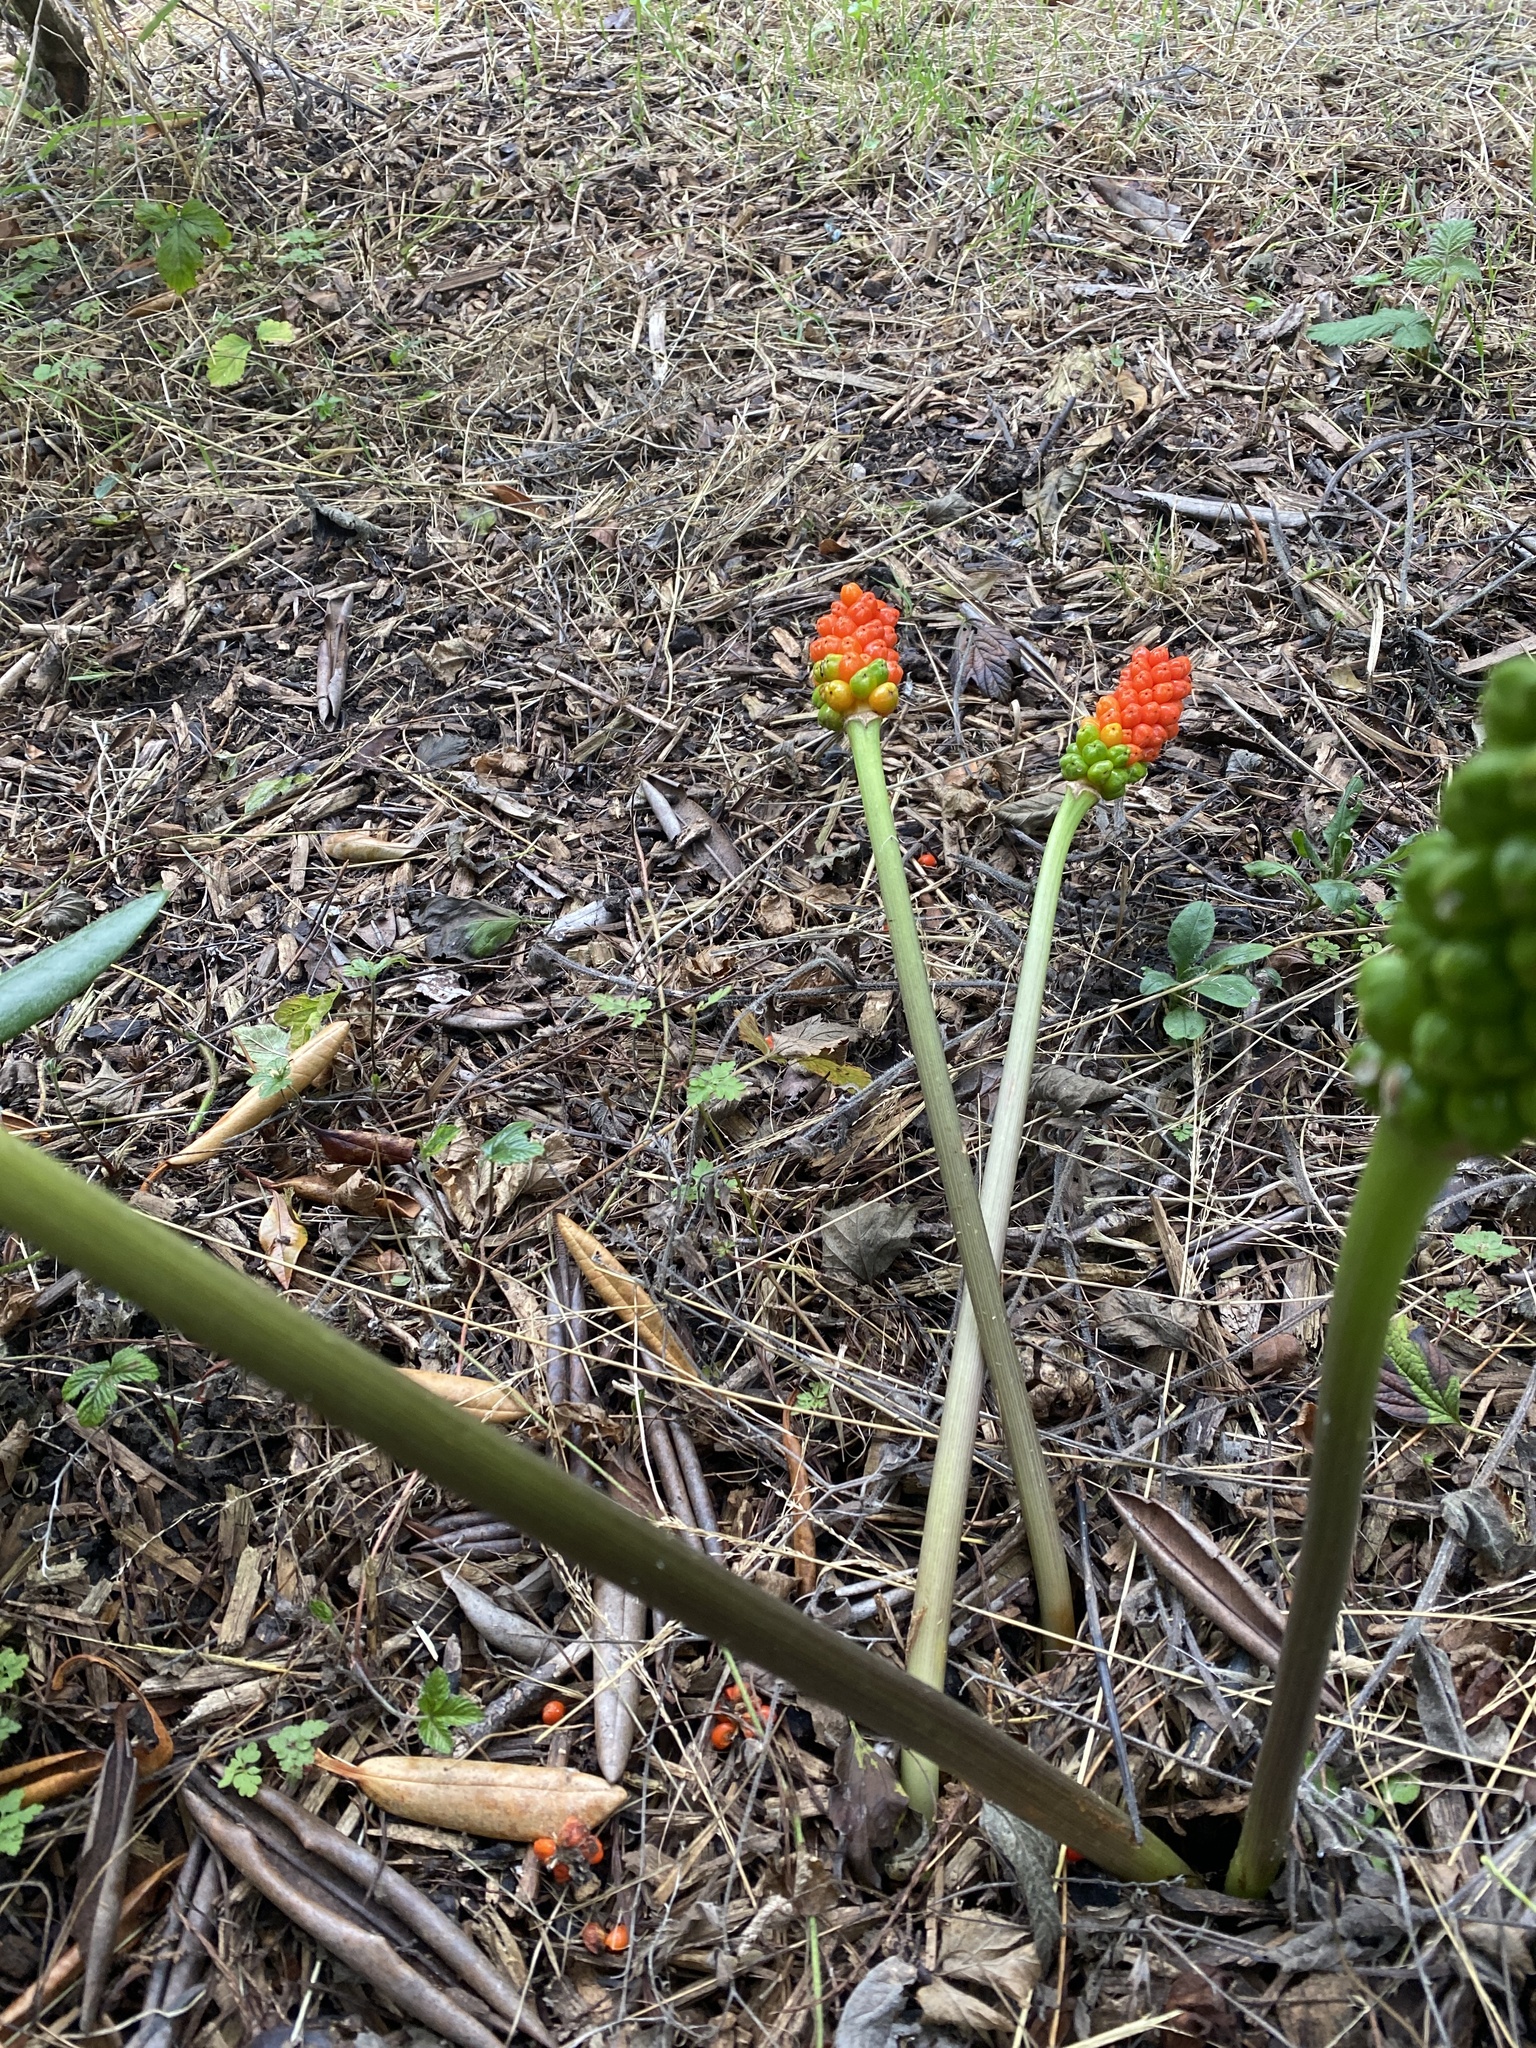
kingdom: Plantae
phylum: Tracheophyta
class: Liliopsida
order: Alismatales
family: Araceae
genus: Arum
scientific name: Arum italicum
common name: Italian lords-and-ladies
